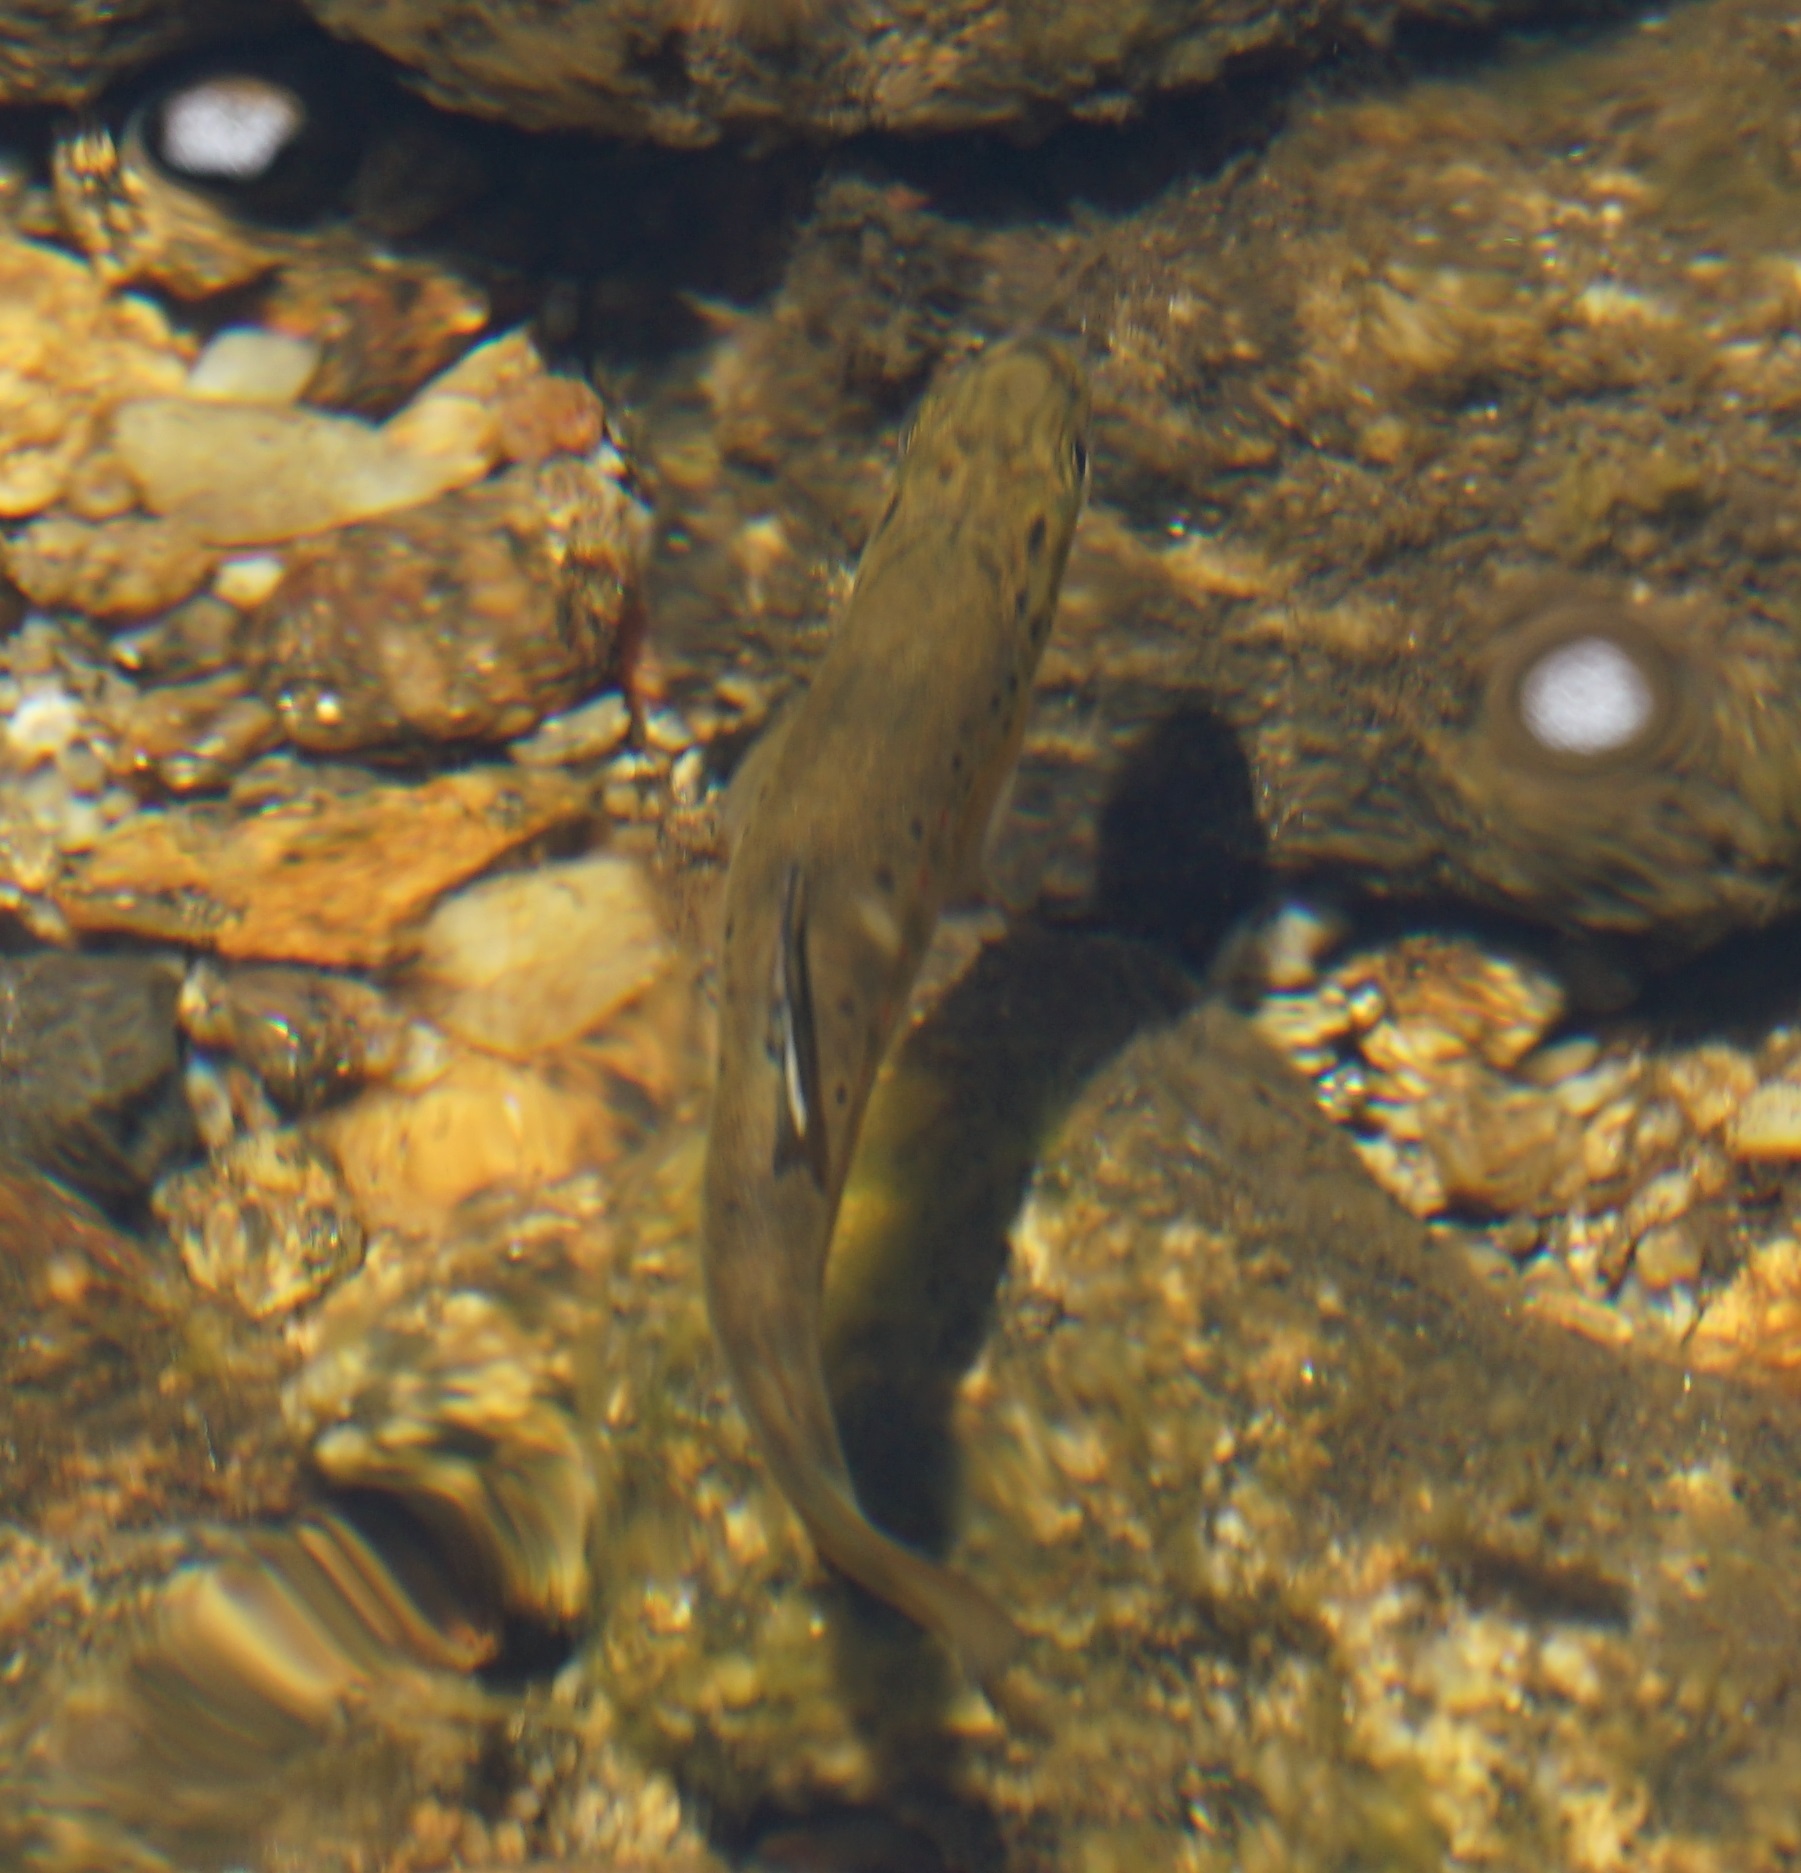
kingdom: Animalia
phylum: Chordata
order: Salmoniformes
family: Salmonidae
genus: Salmo
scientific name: Salmo trutta
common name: Brown trout
